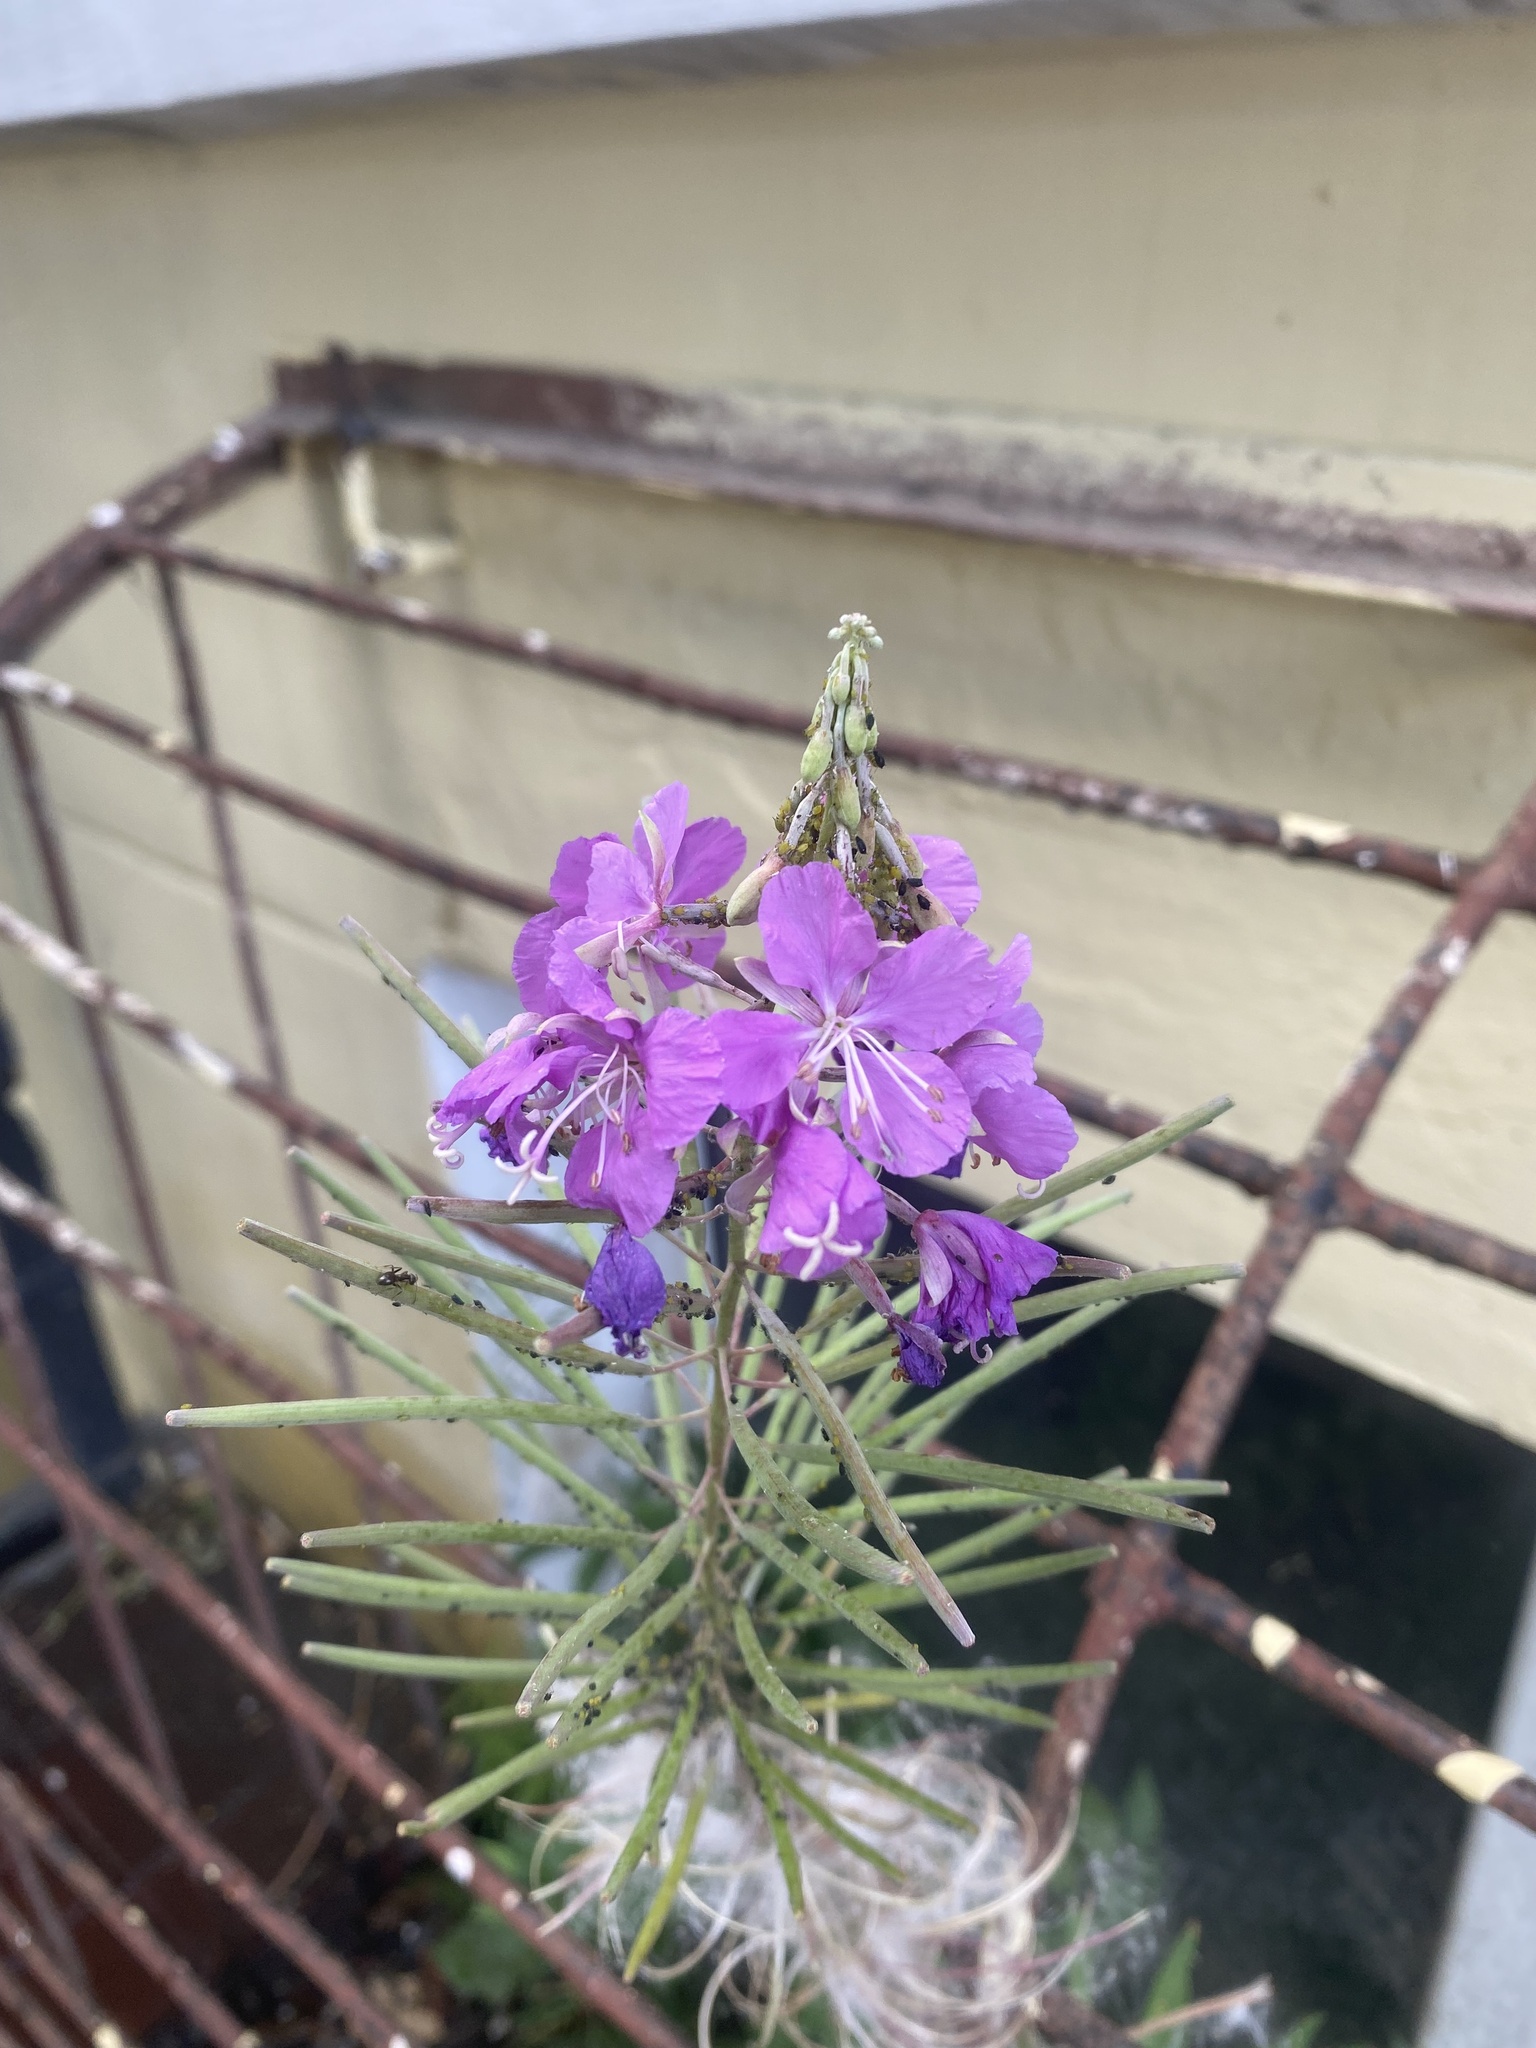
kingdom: Plantae
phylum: Tracheophyta
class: Magnoliopsida
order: Myrtales
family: Onagraceae
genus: Chamaenerion
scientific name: Chamaenerion angustifolium
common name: Fireweed
